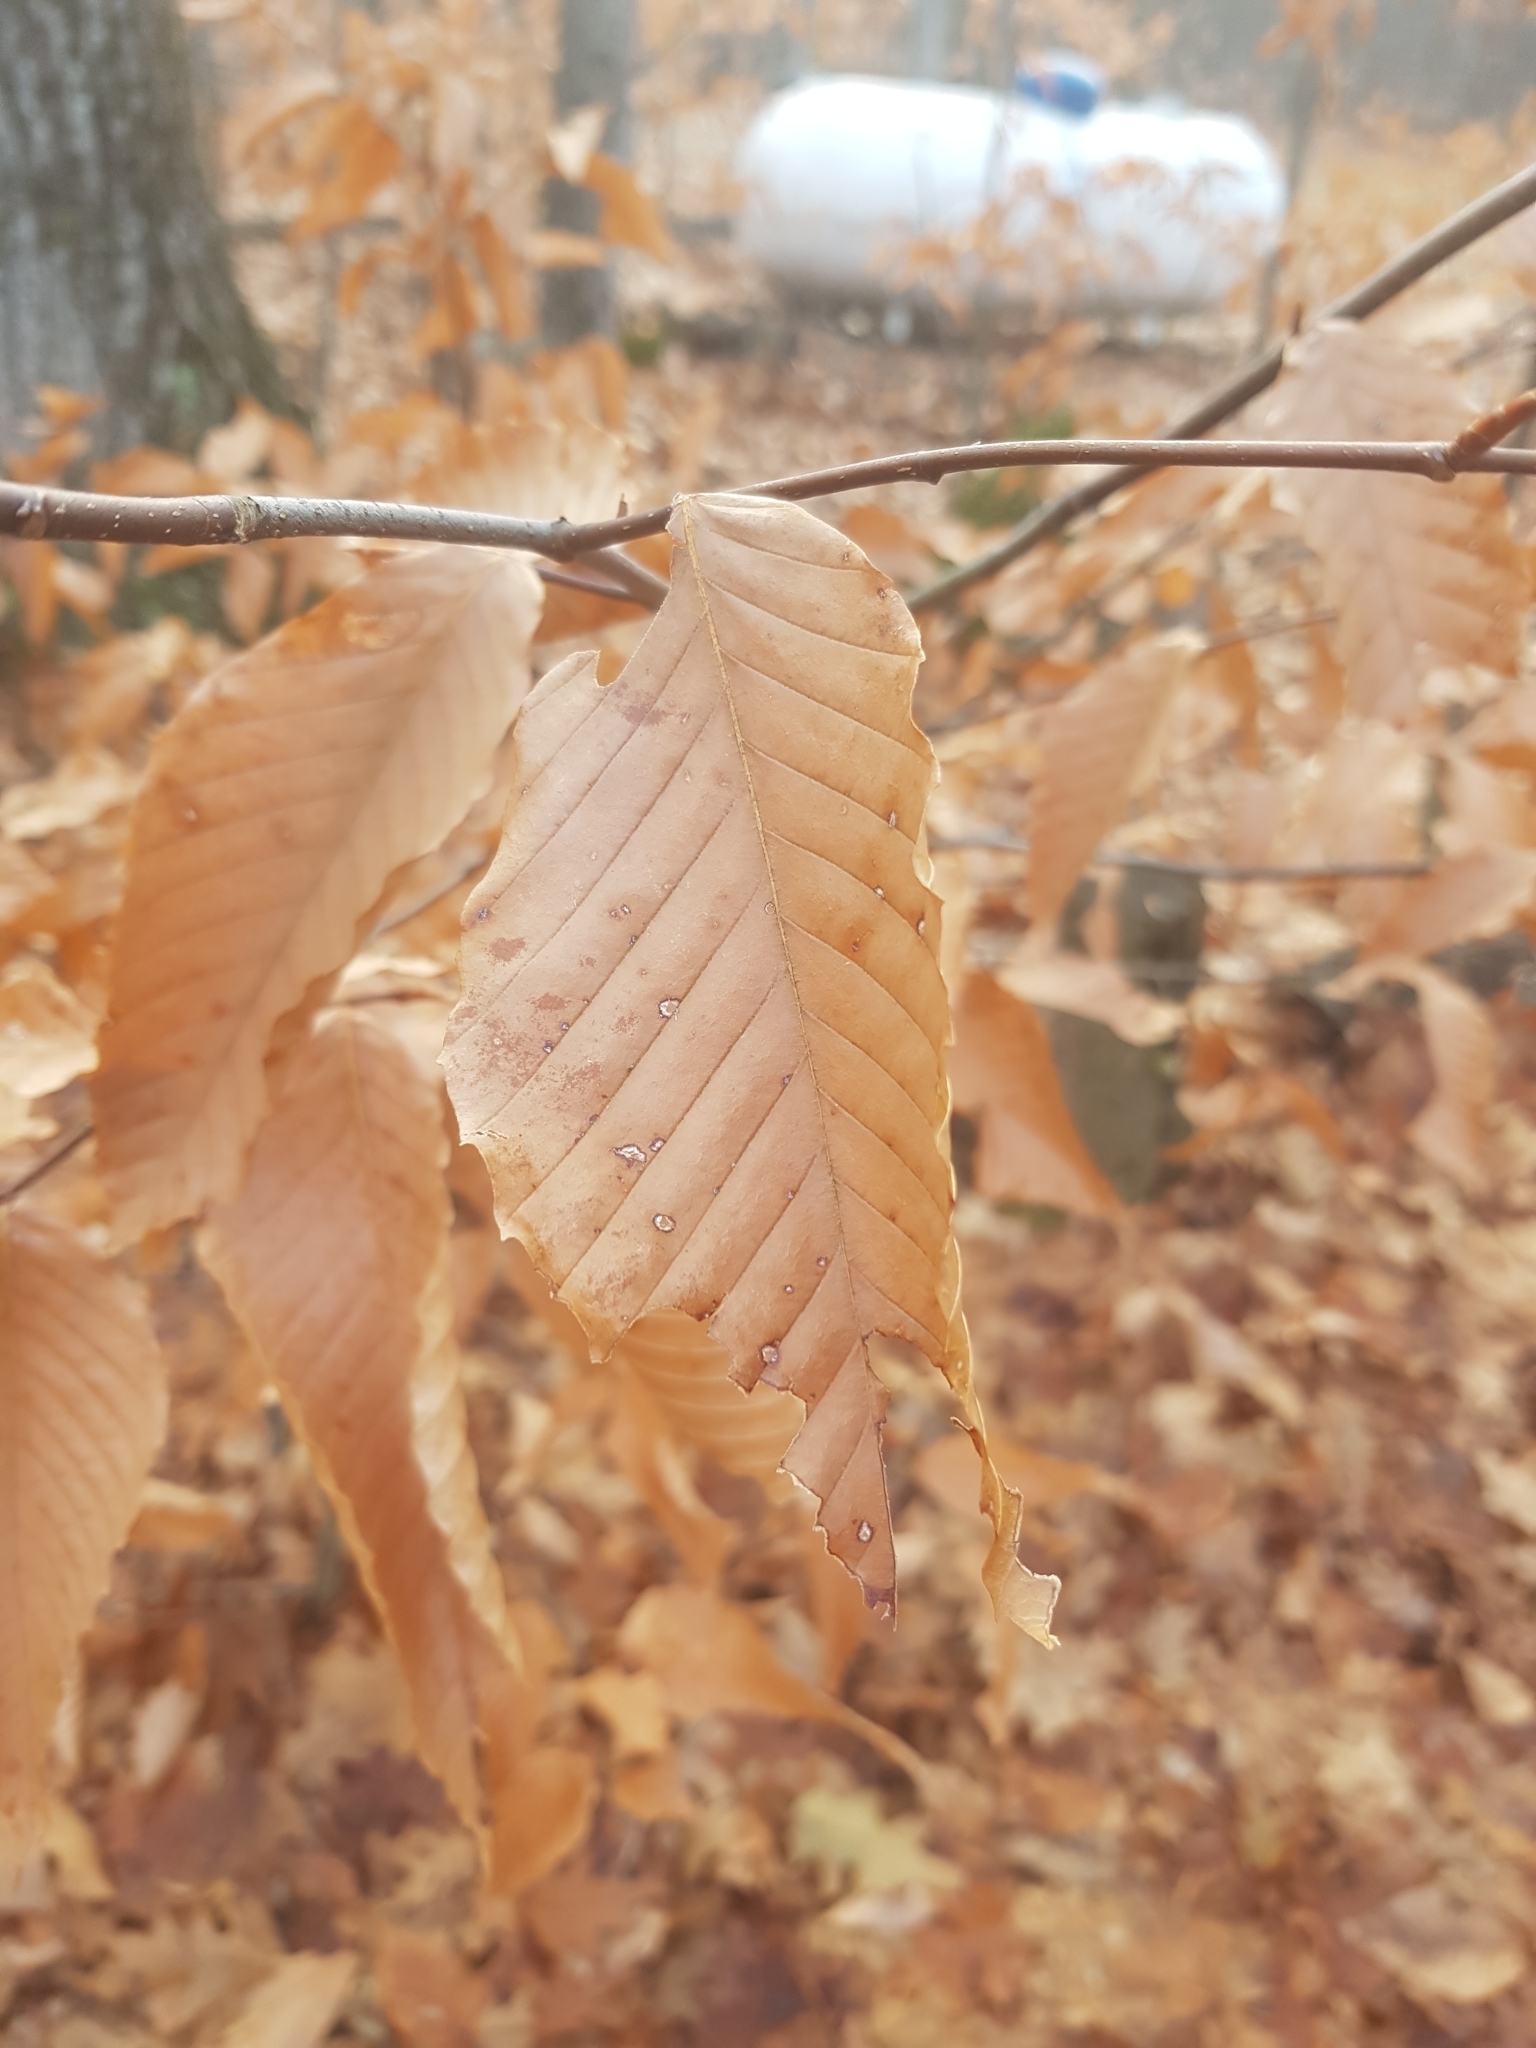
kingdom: Plantae
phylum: Tracheophyta
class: Magnoliopsida
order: Fagales
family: Fagaceae
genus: Fagus
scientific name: Fagus grandifolia
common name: American beech
